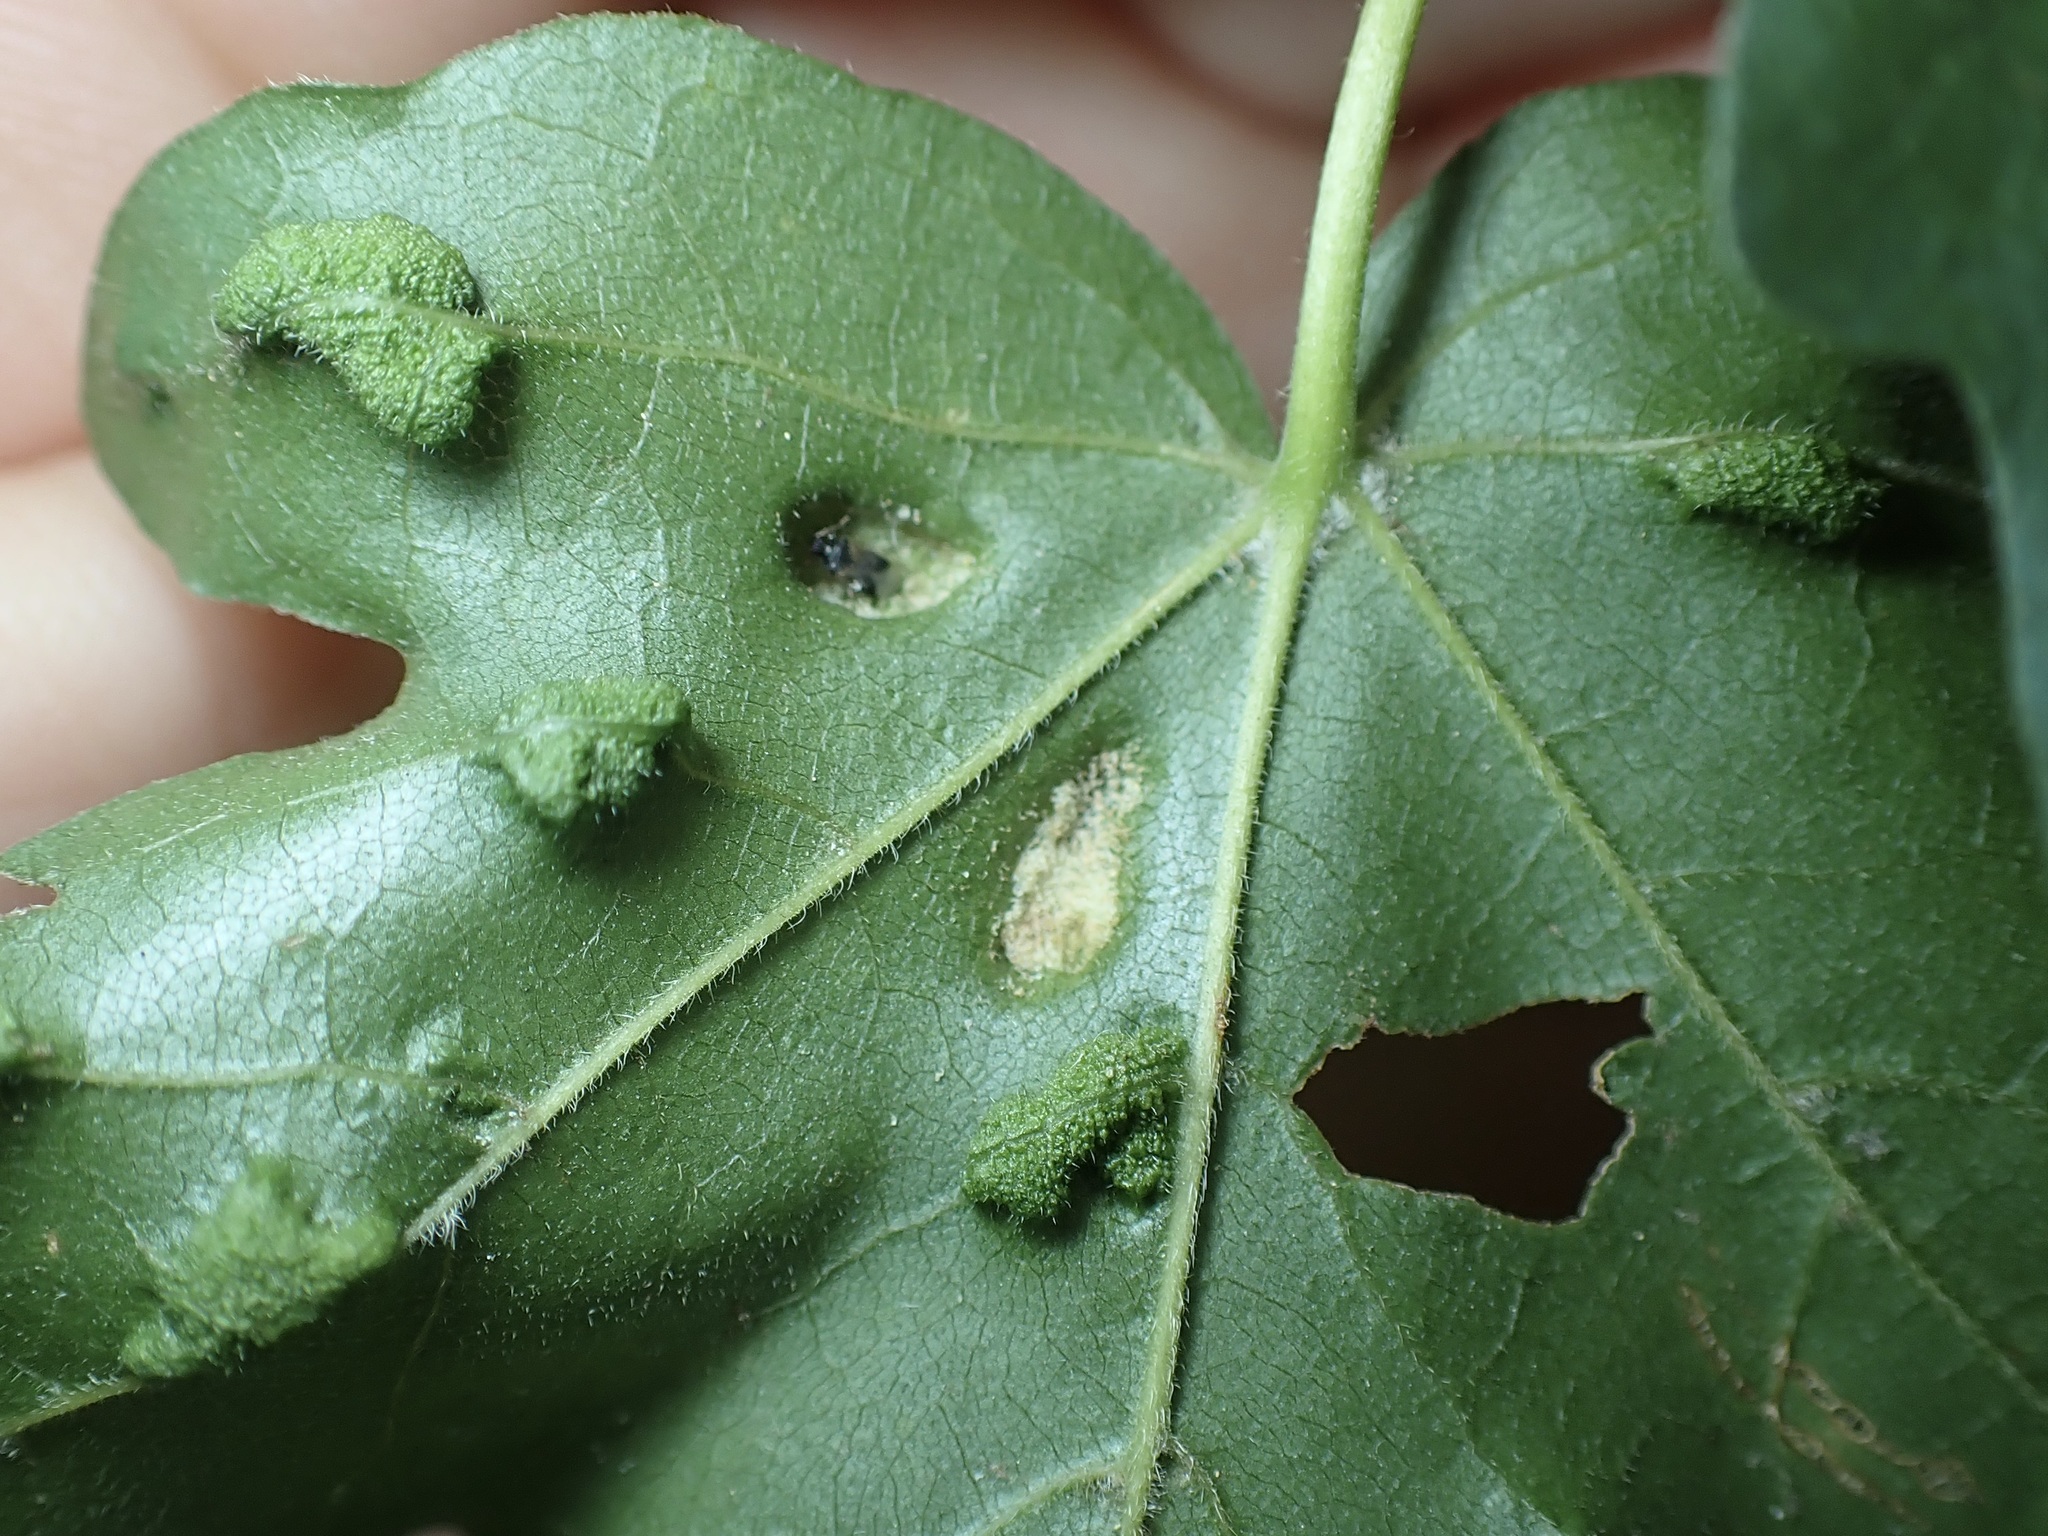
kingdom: Animalia
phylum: Arthropoda
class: Arachnida
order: Trombidiformes
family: Eriophyidae
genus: Aceria
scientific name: Aceria carinifex
